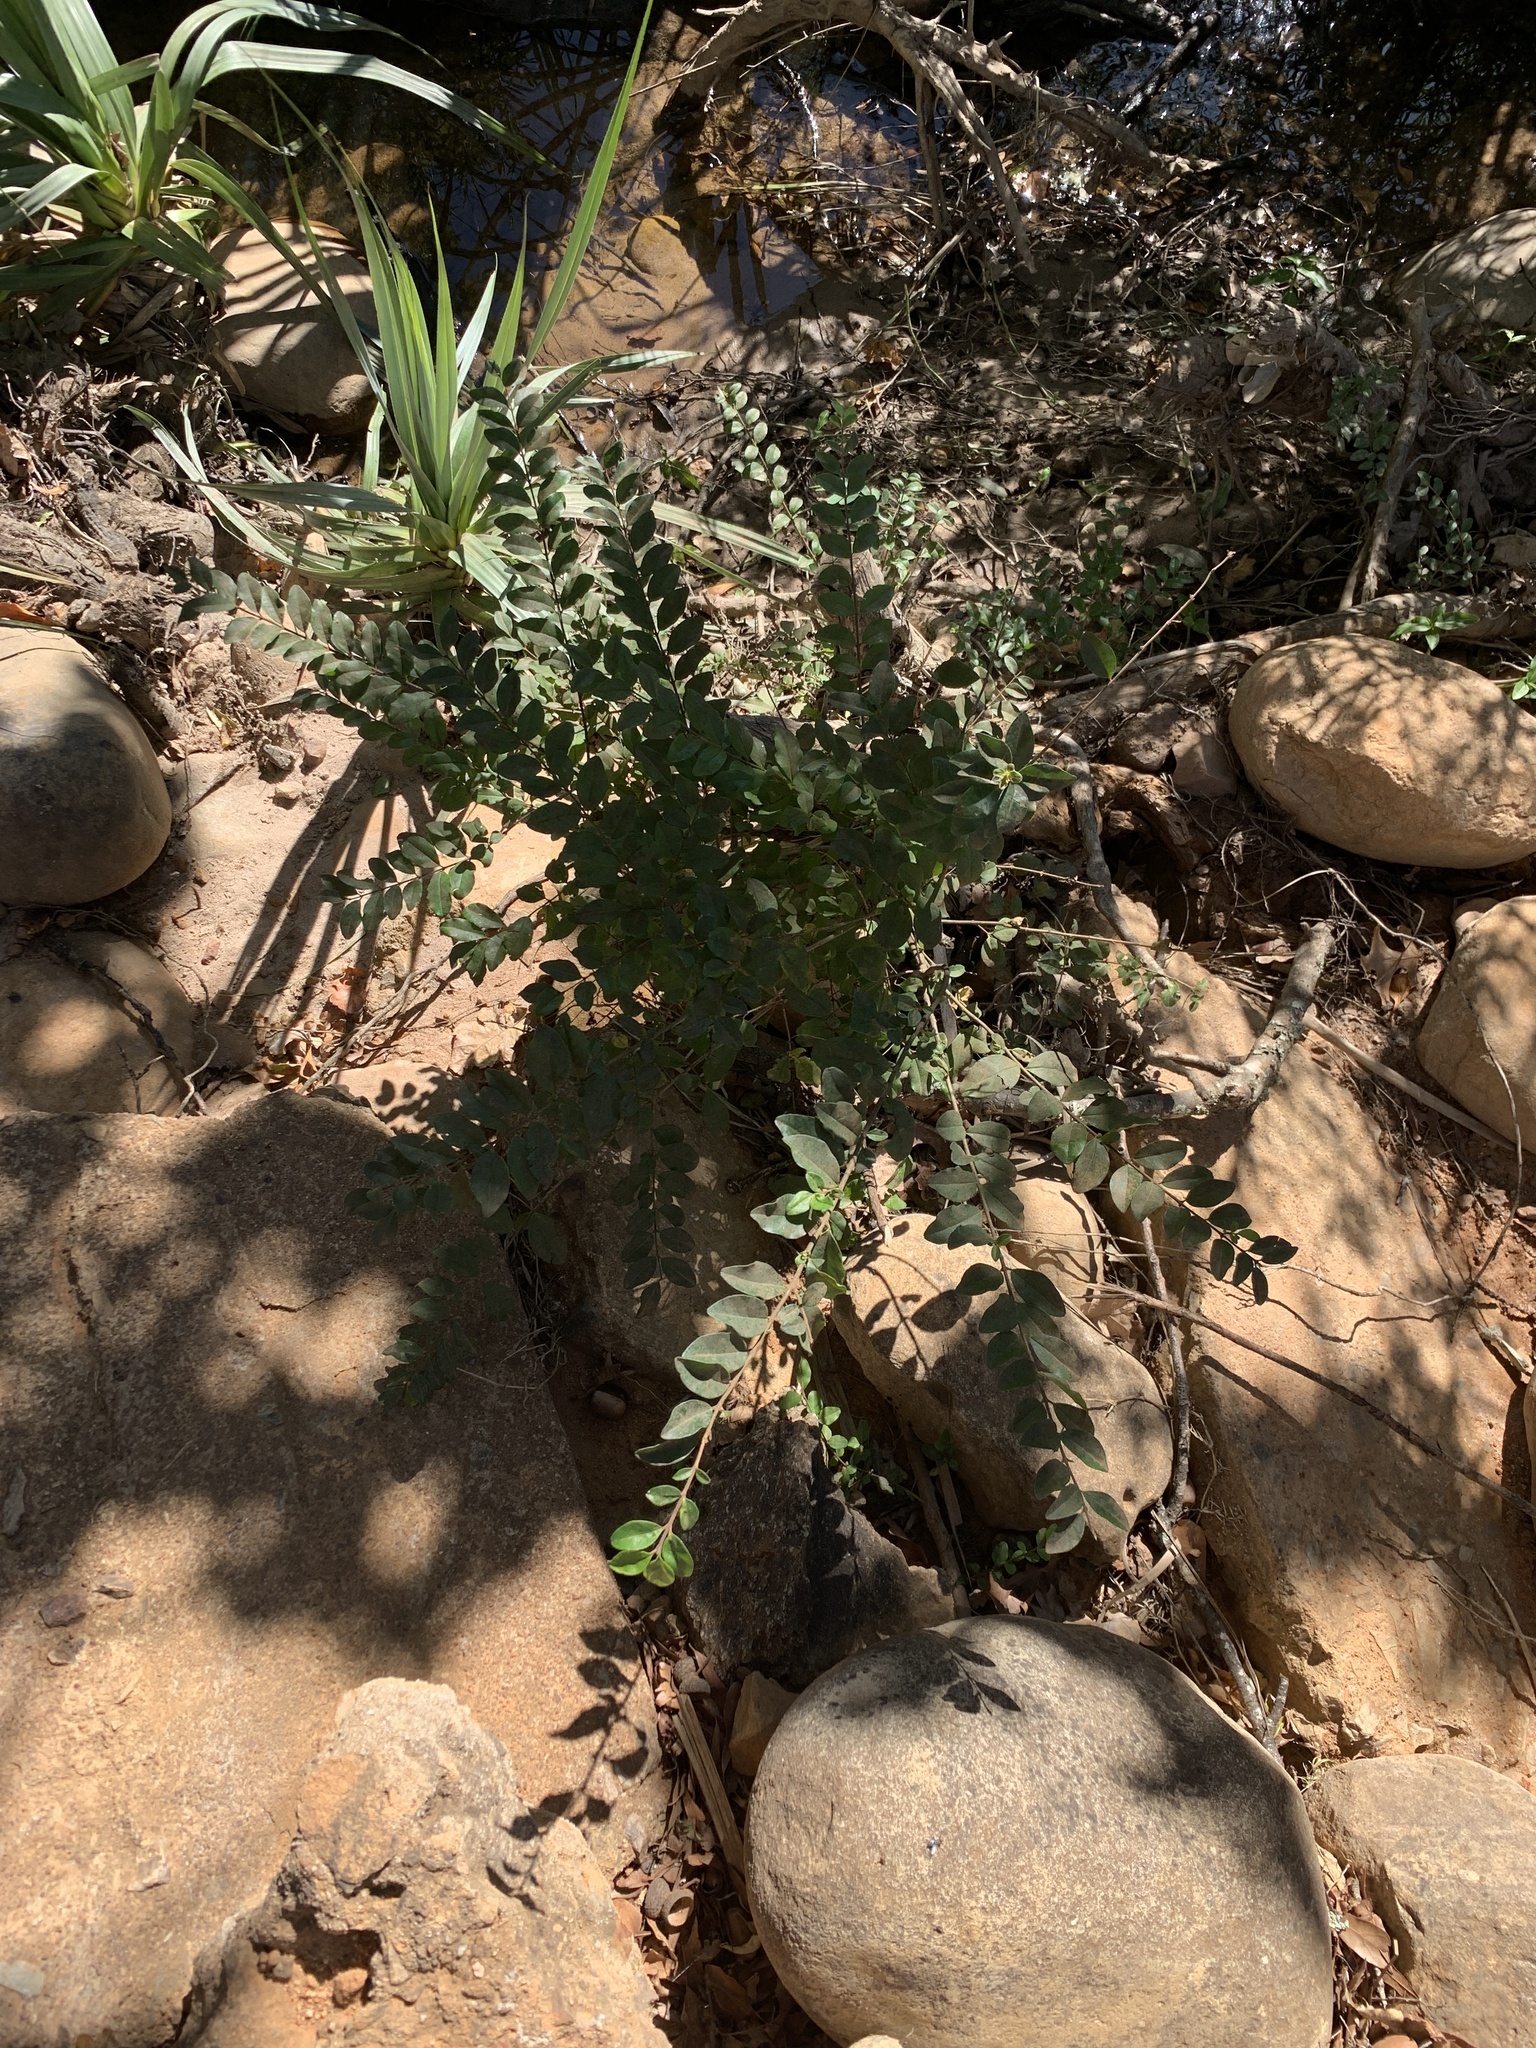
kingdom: Plantae
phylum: Tracheophyta
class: Magnoliopsida
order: Lamiales
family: Oleaceae
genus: Ligustrum
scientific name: Ligustrum sinense
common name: Chinese privet
